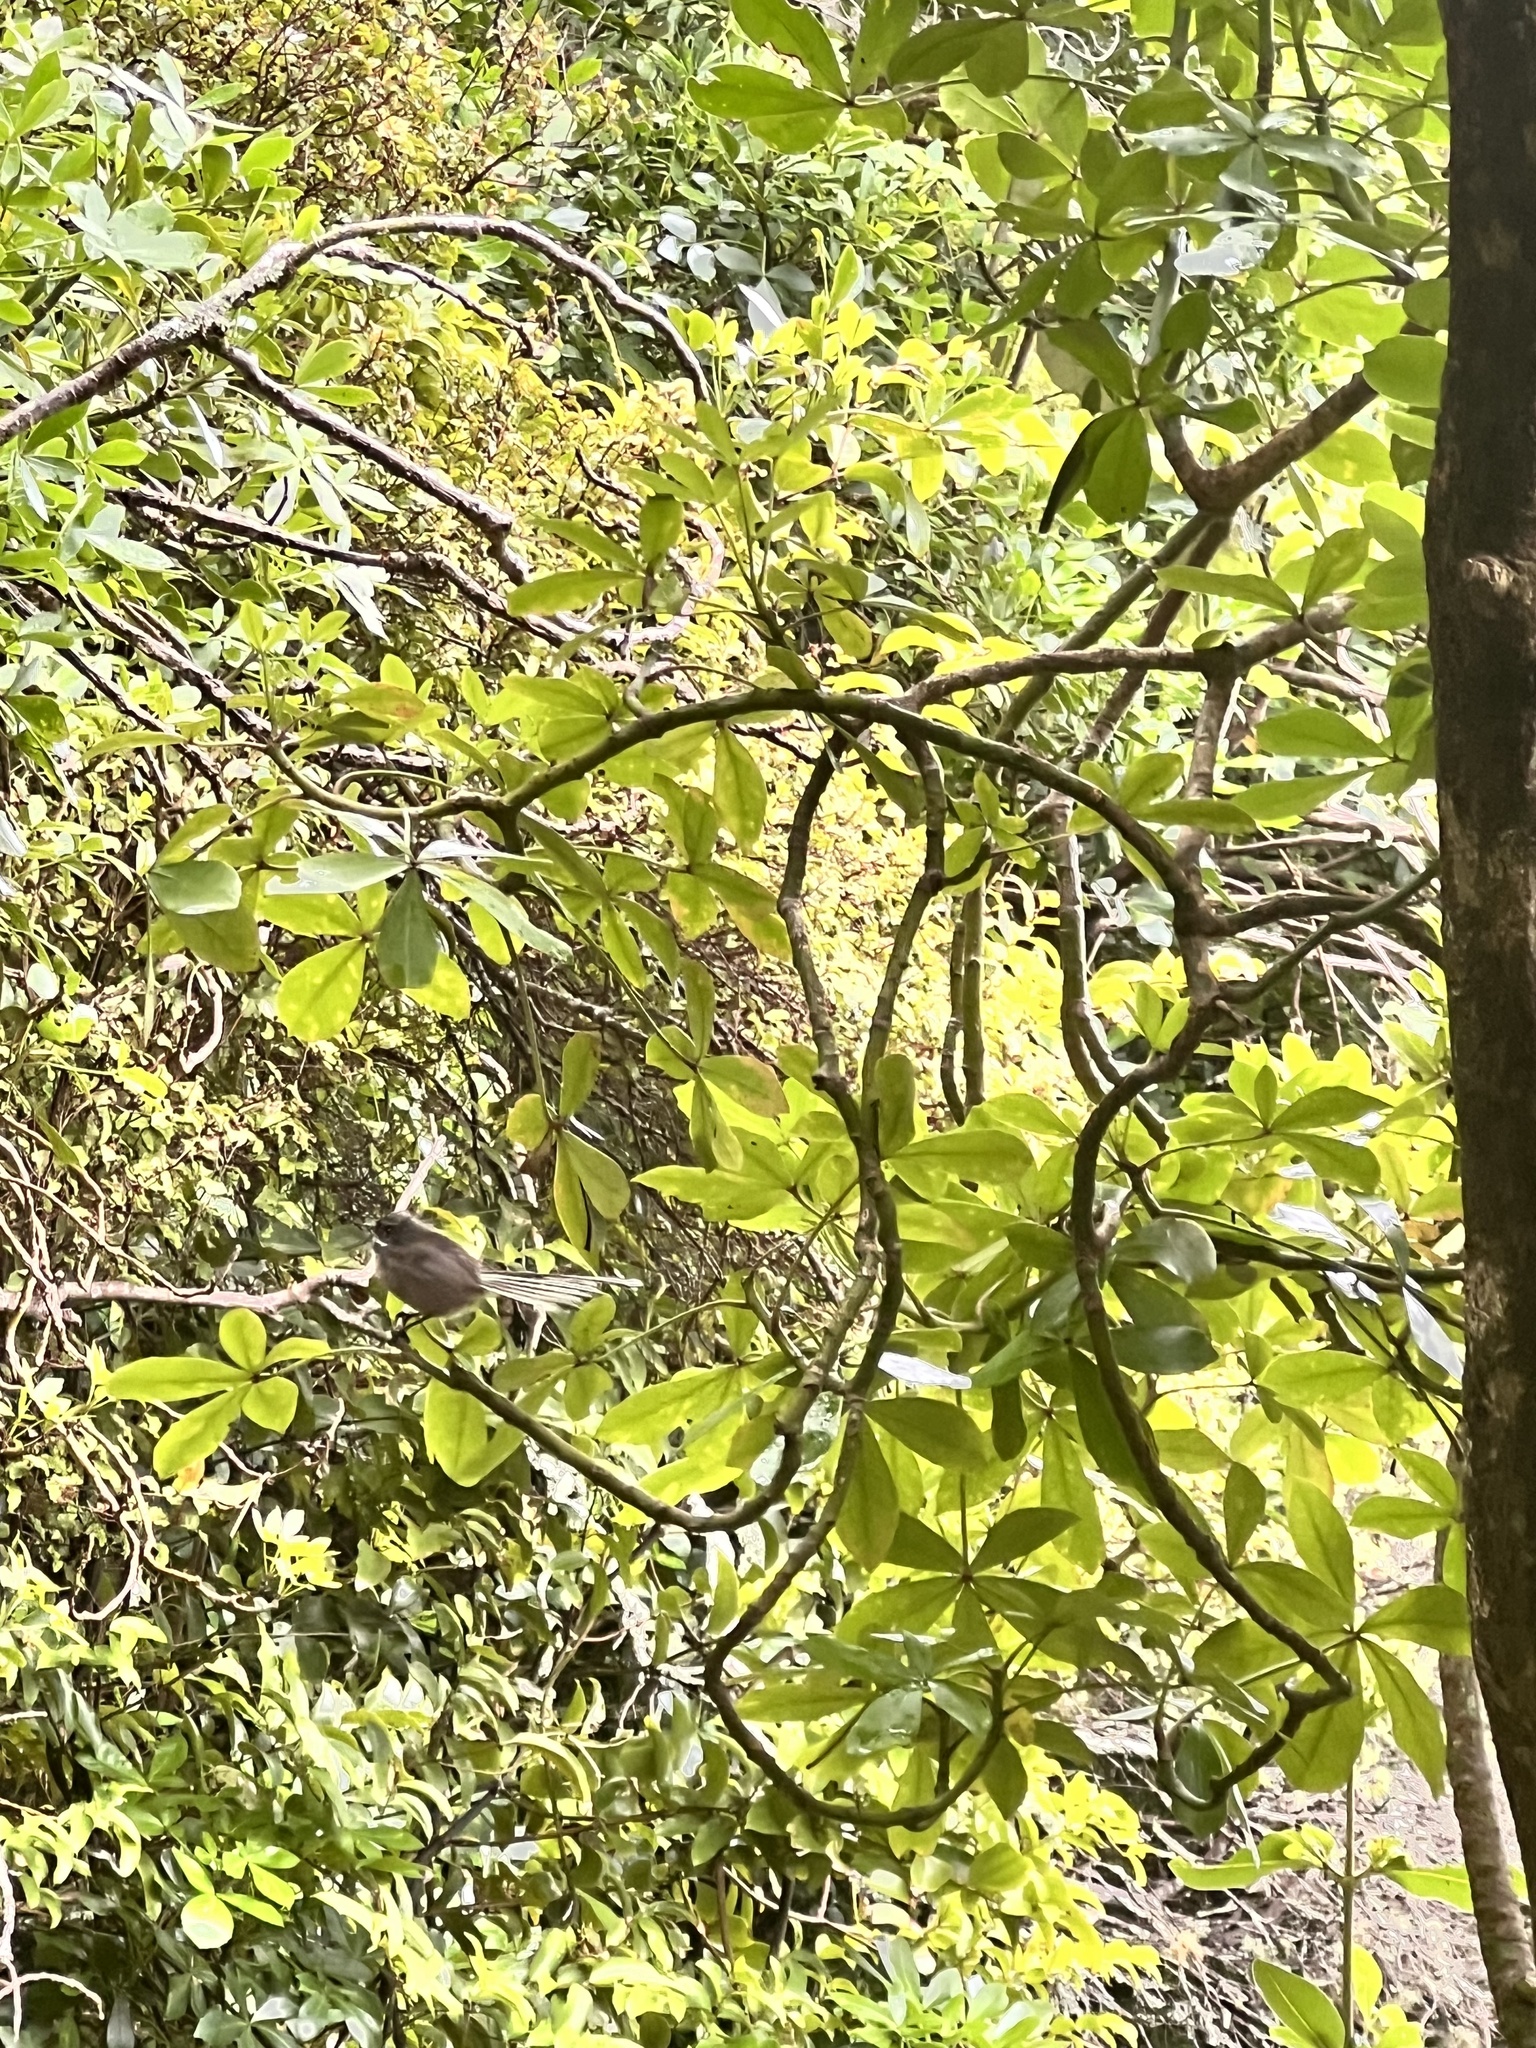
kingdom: Animalia
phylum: Chordata
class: Aves
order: Passeriformes
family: Rhipiduridae
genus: Rhipidura
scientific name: Rhipidura fuliginosa
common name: New zealand fantail
